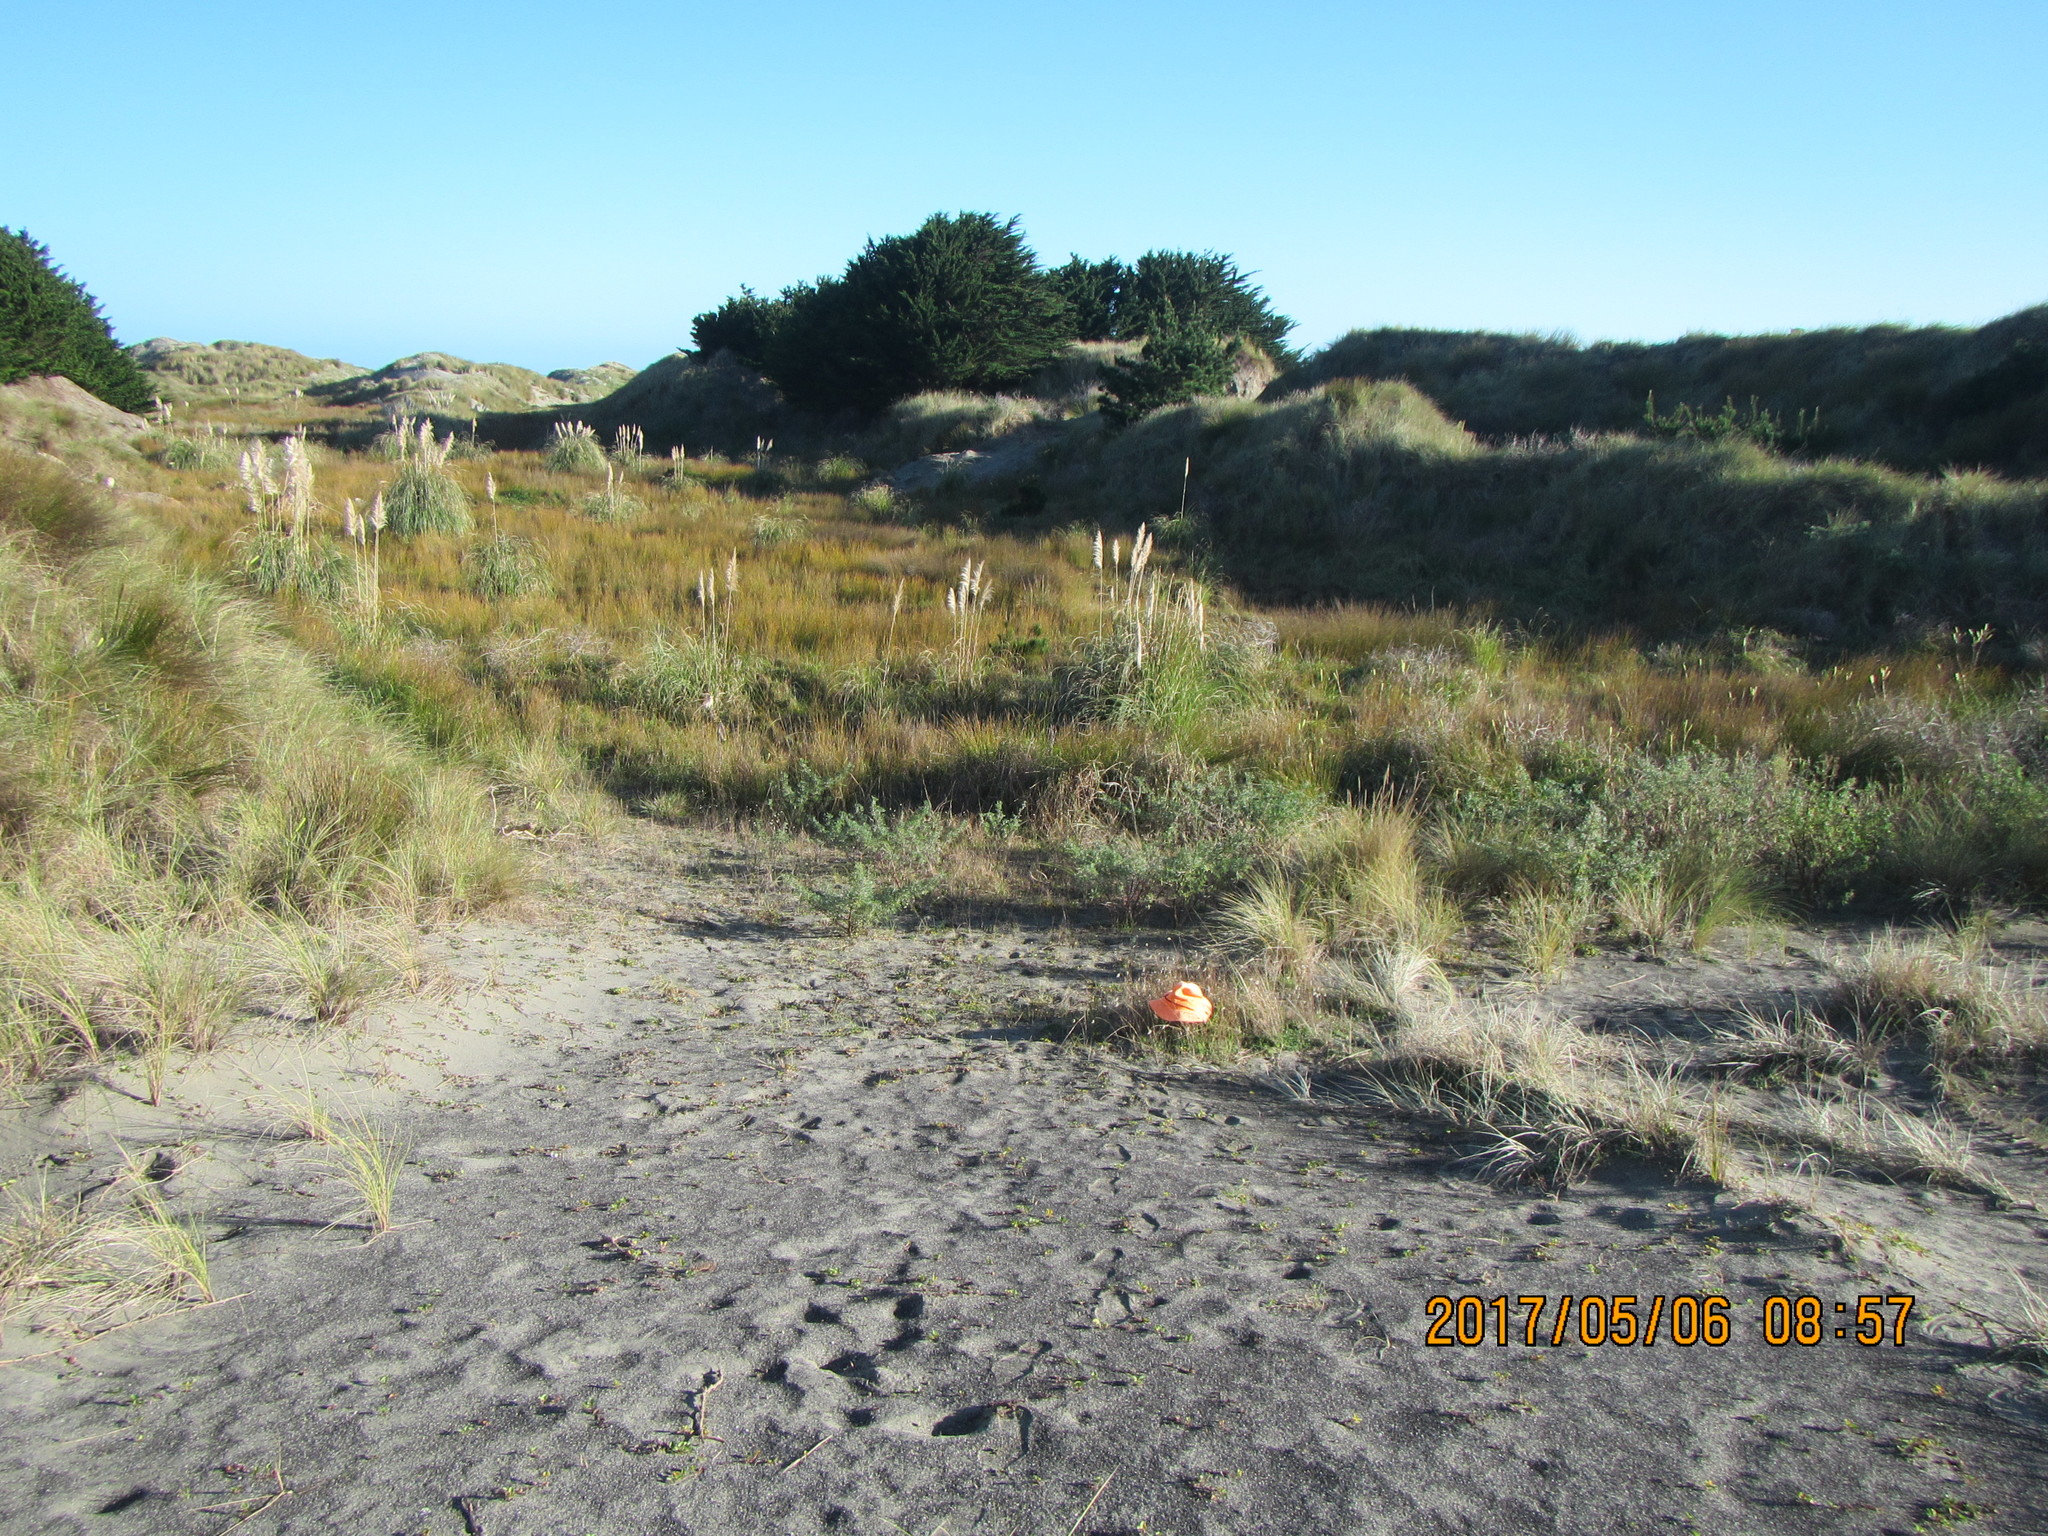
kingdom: Plantae
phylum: Tracheophyta
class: Liliopsida
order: Poales
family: Poaceae
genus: Lagurus
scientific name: Lagurus ovatus
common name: Hare's-tail
